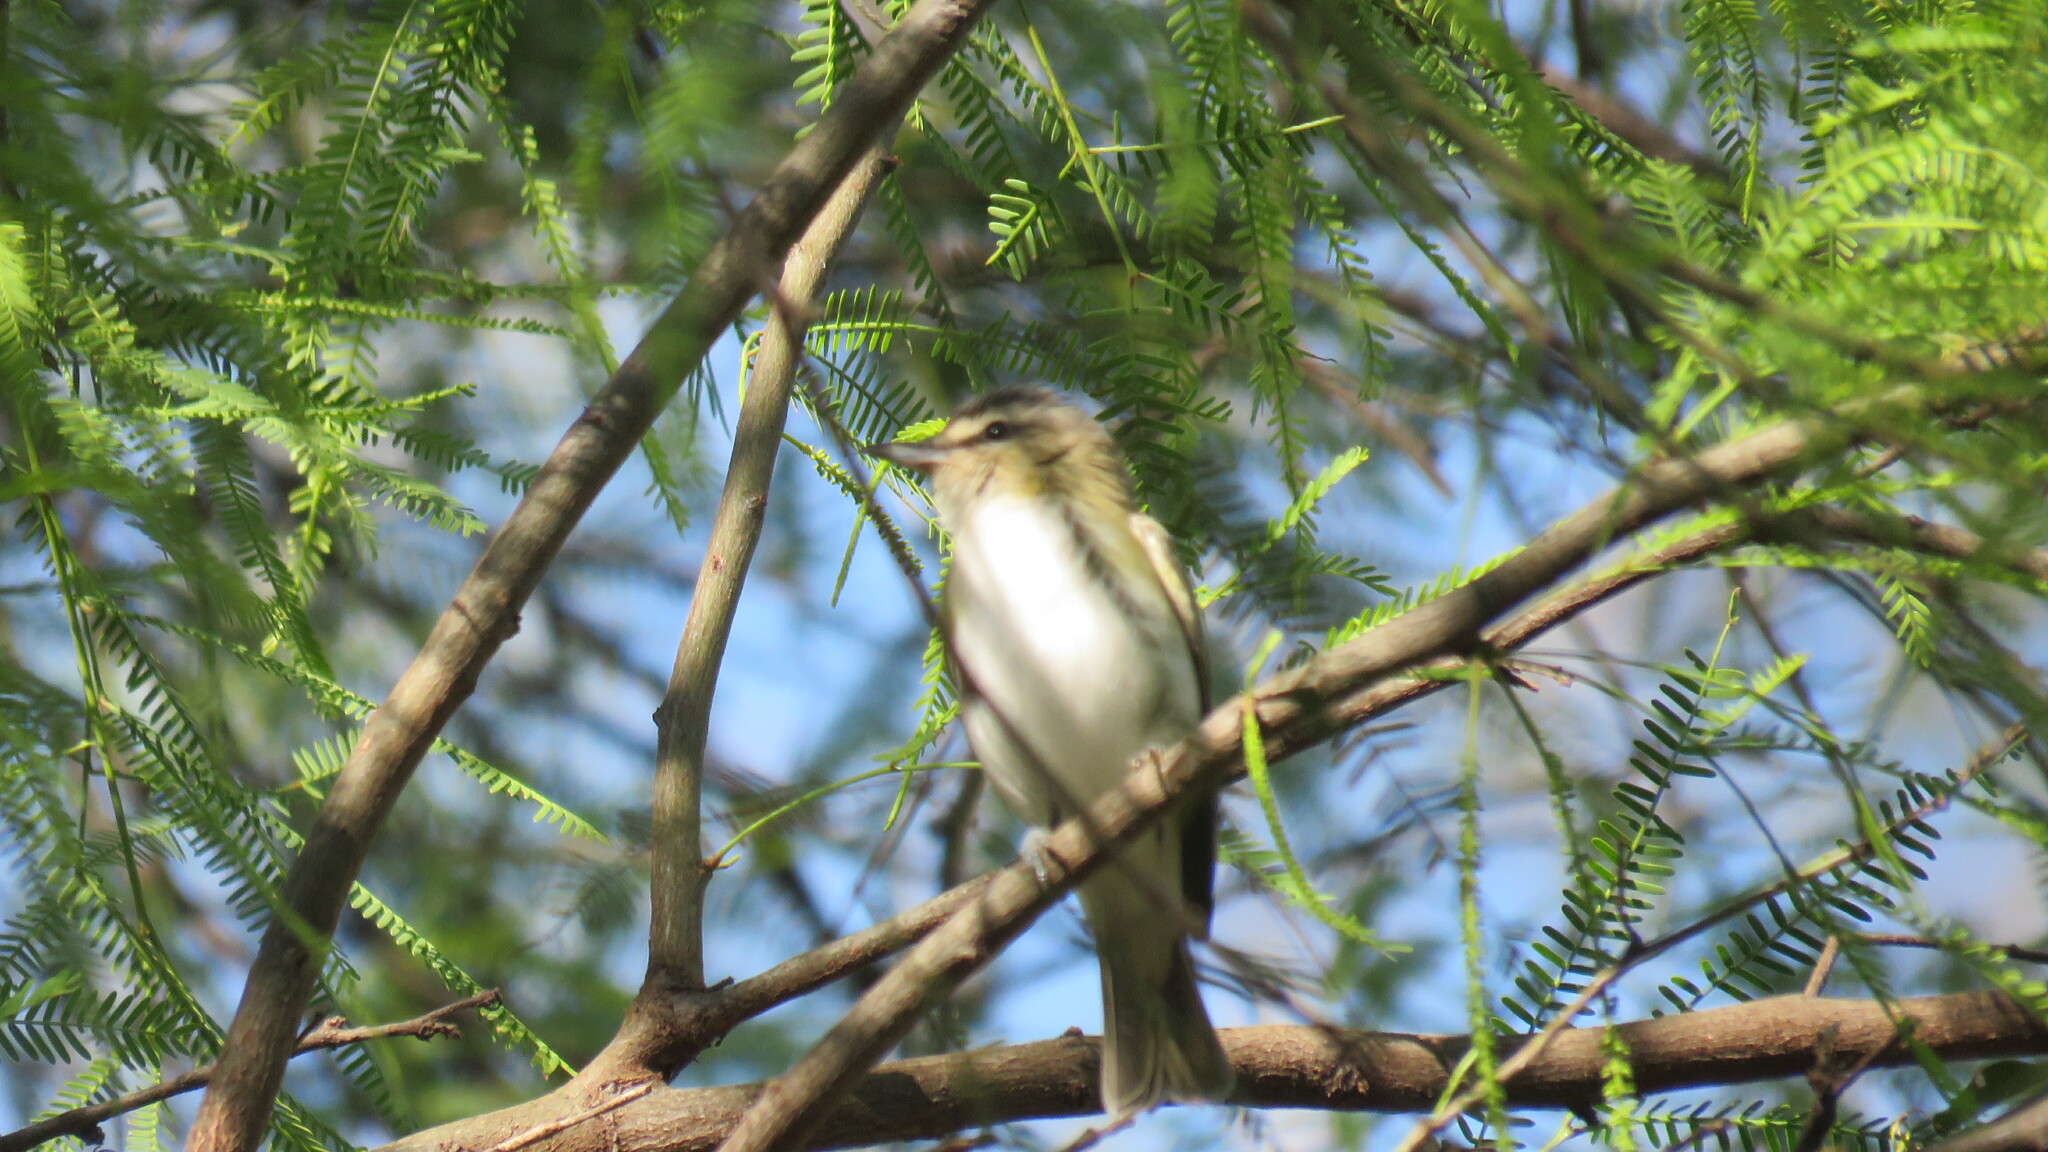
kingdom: Animalia
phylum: Chordata
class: Aves
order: Passeriformes
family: Vireonidae
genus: Vireo
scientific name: Vireo olivaceus
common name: Red-eyed vireo
